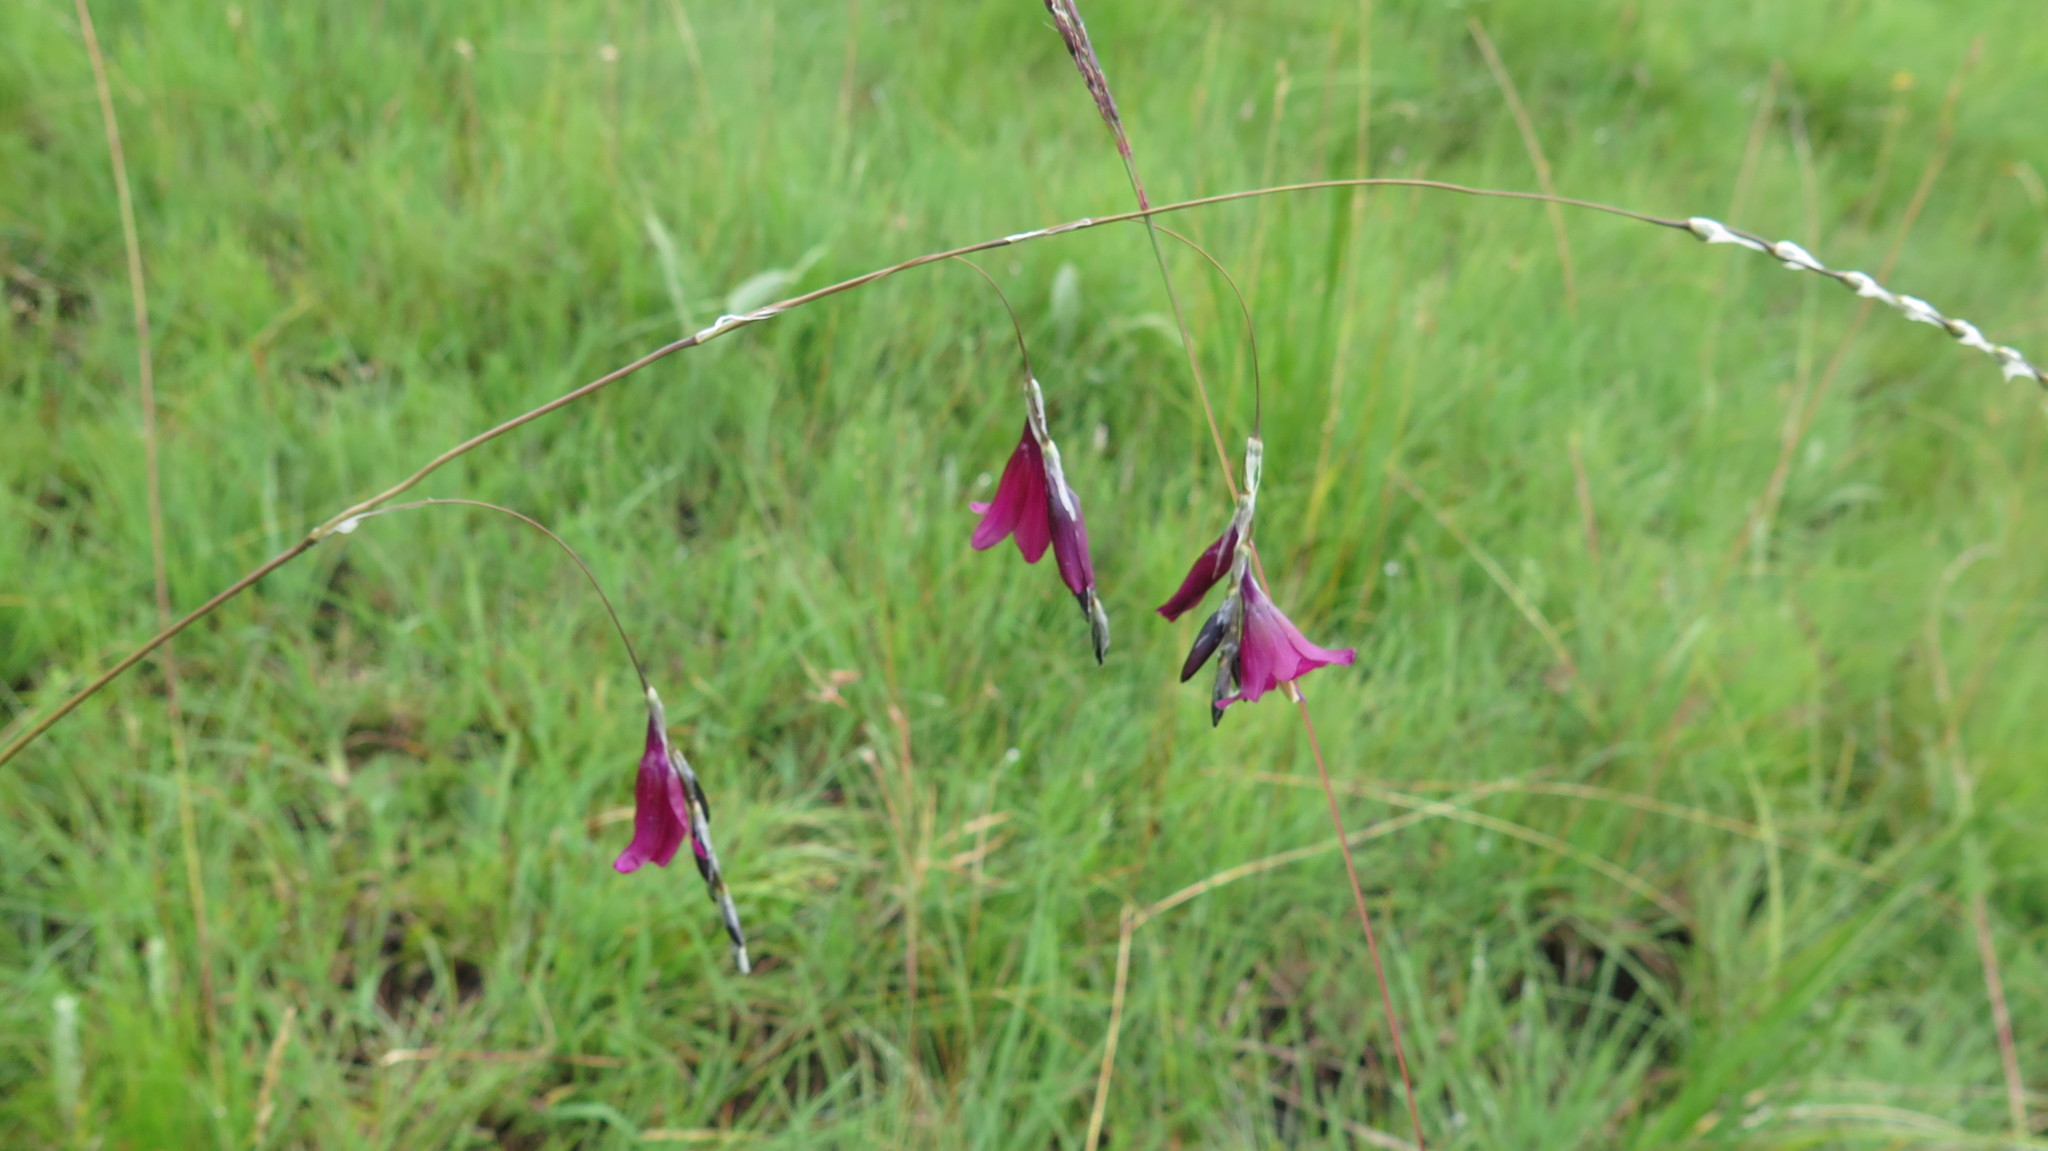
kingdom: Plantae
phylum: Tracheophyta
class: Liliopsida
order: Asparagales
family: Iridaceae
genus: Dierama
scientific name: Dierama dracomontanum
